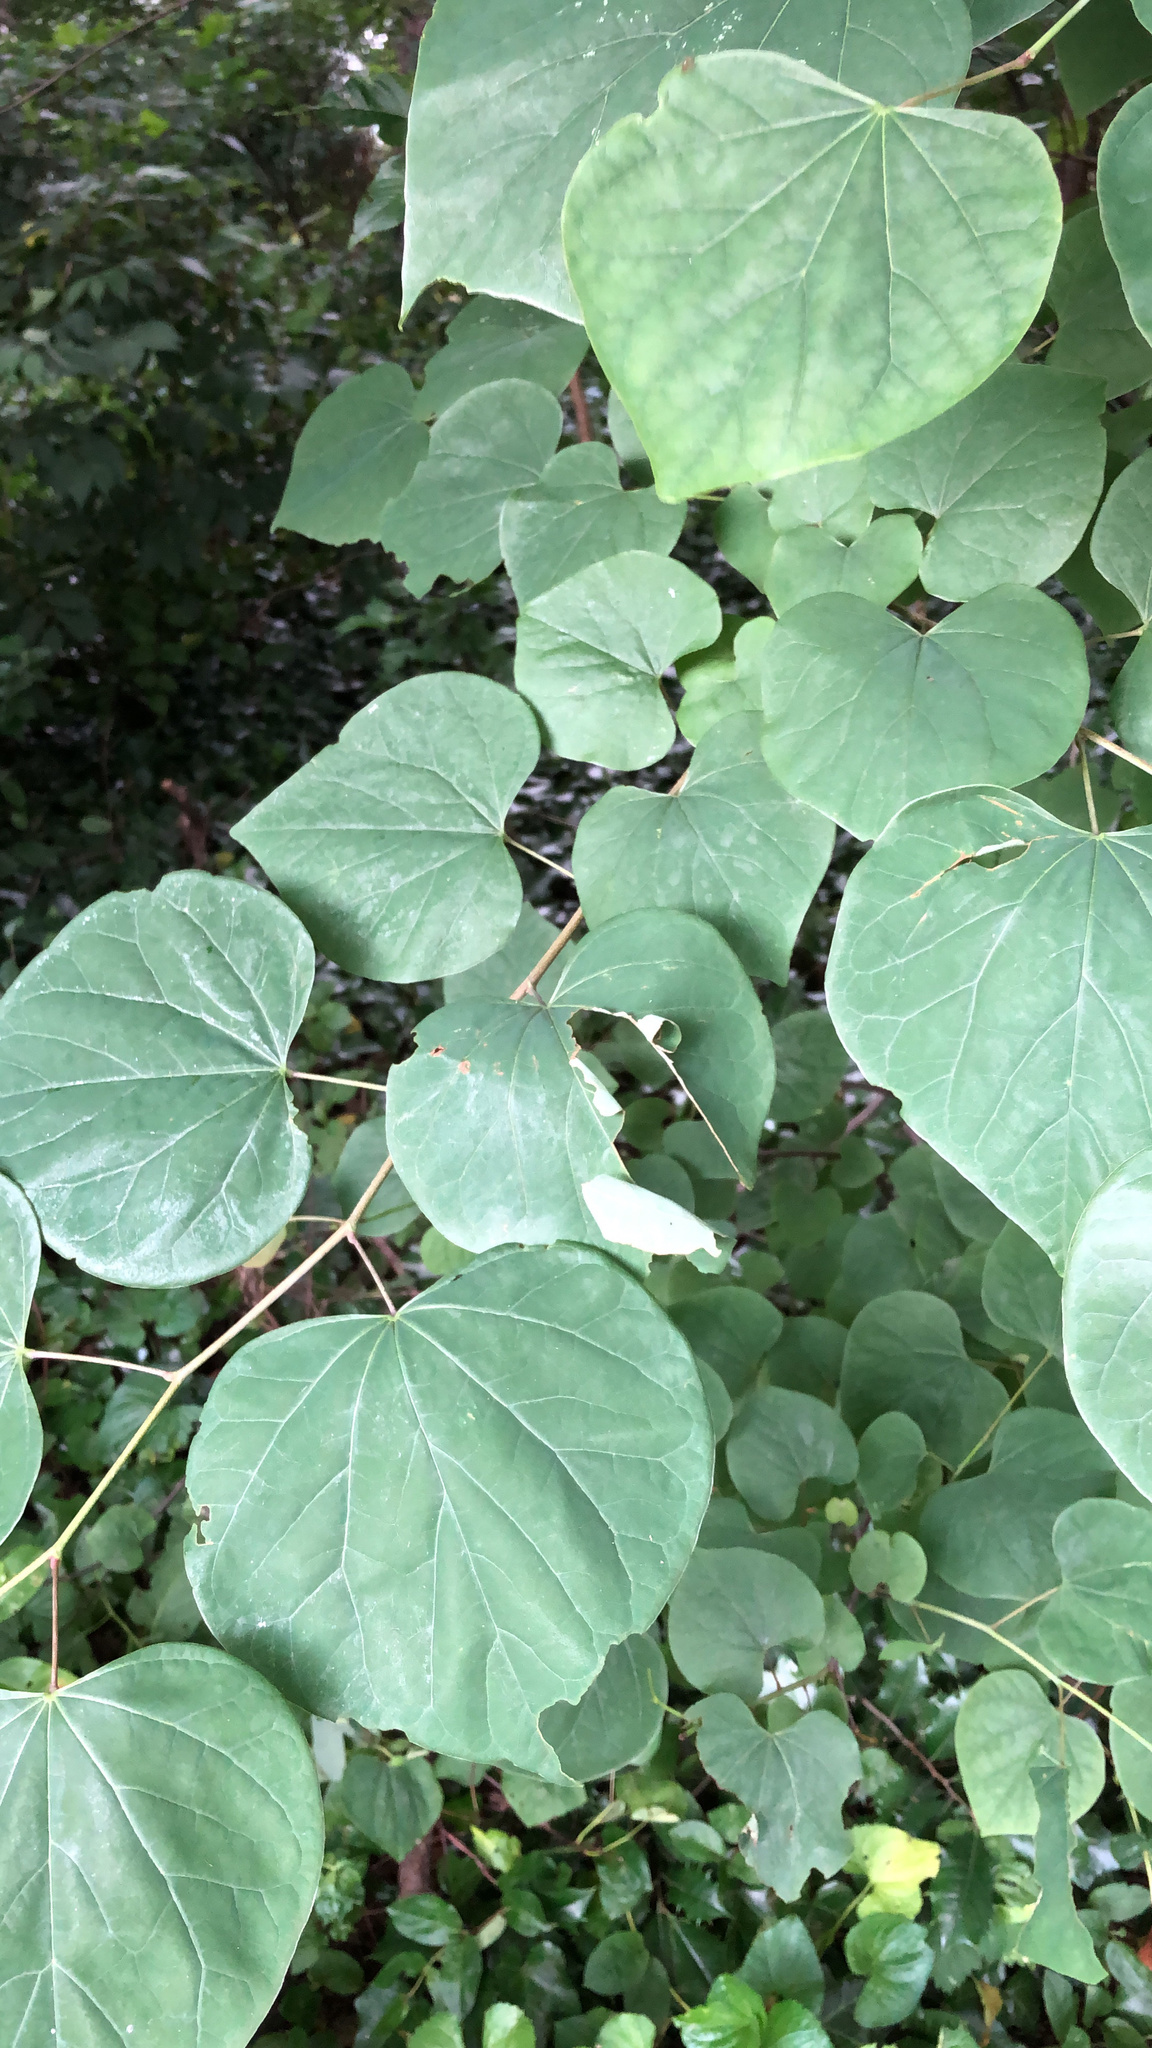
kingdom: Plantae
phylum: Tracheophyta
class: Magnoliopsida
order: Fabales
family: Fabaceae
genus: Cercis
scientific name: Cercis canadensis
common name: Eastern redbud
